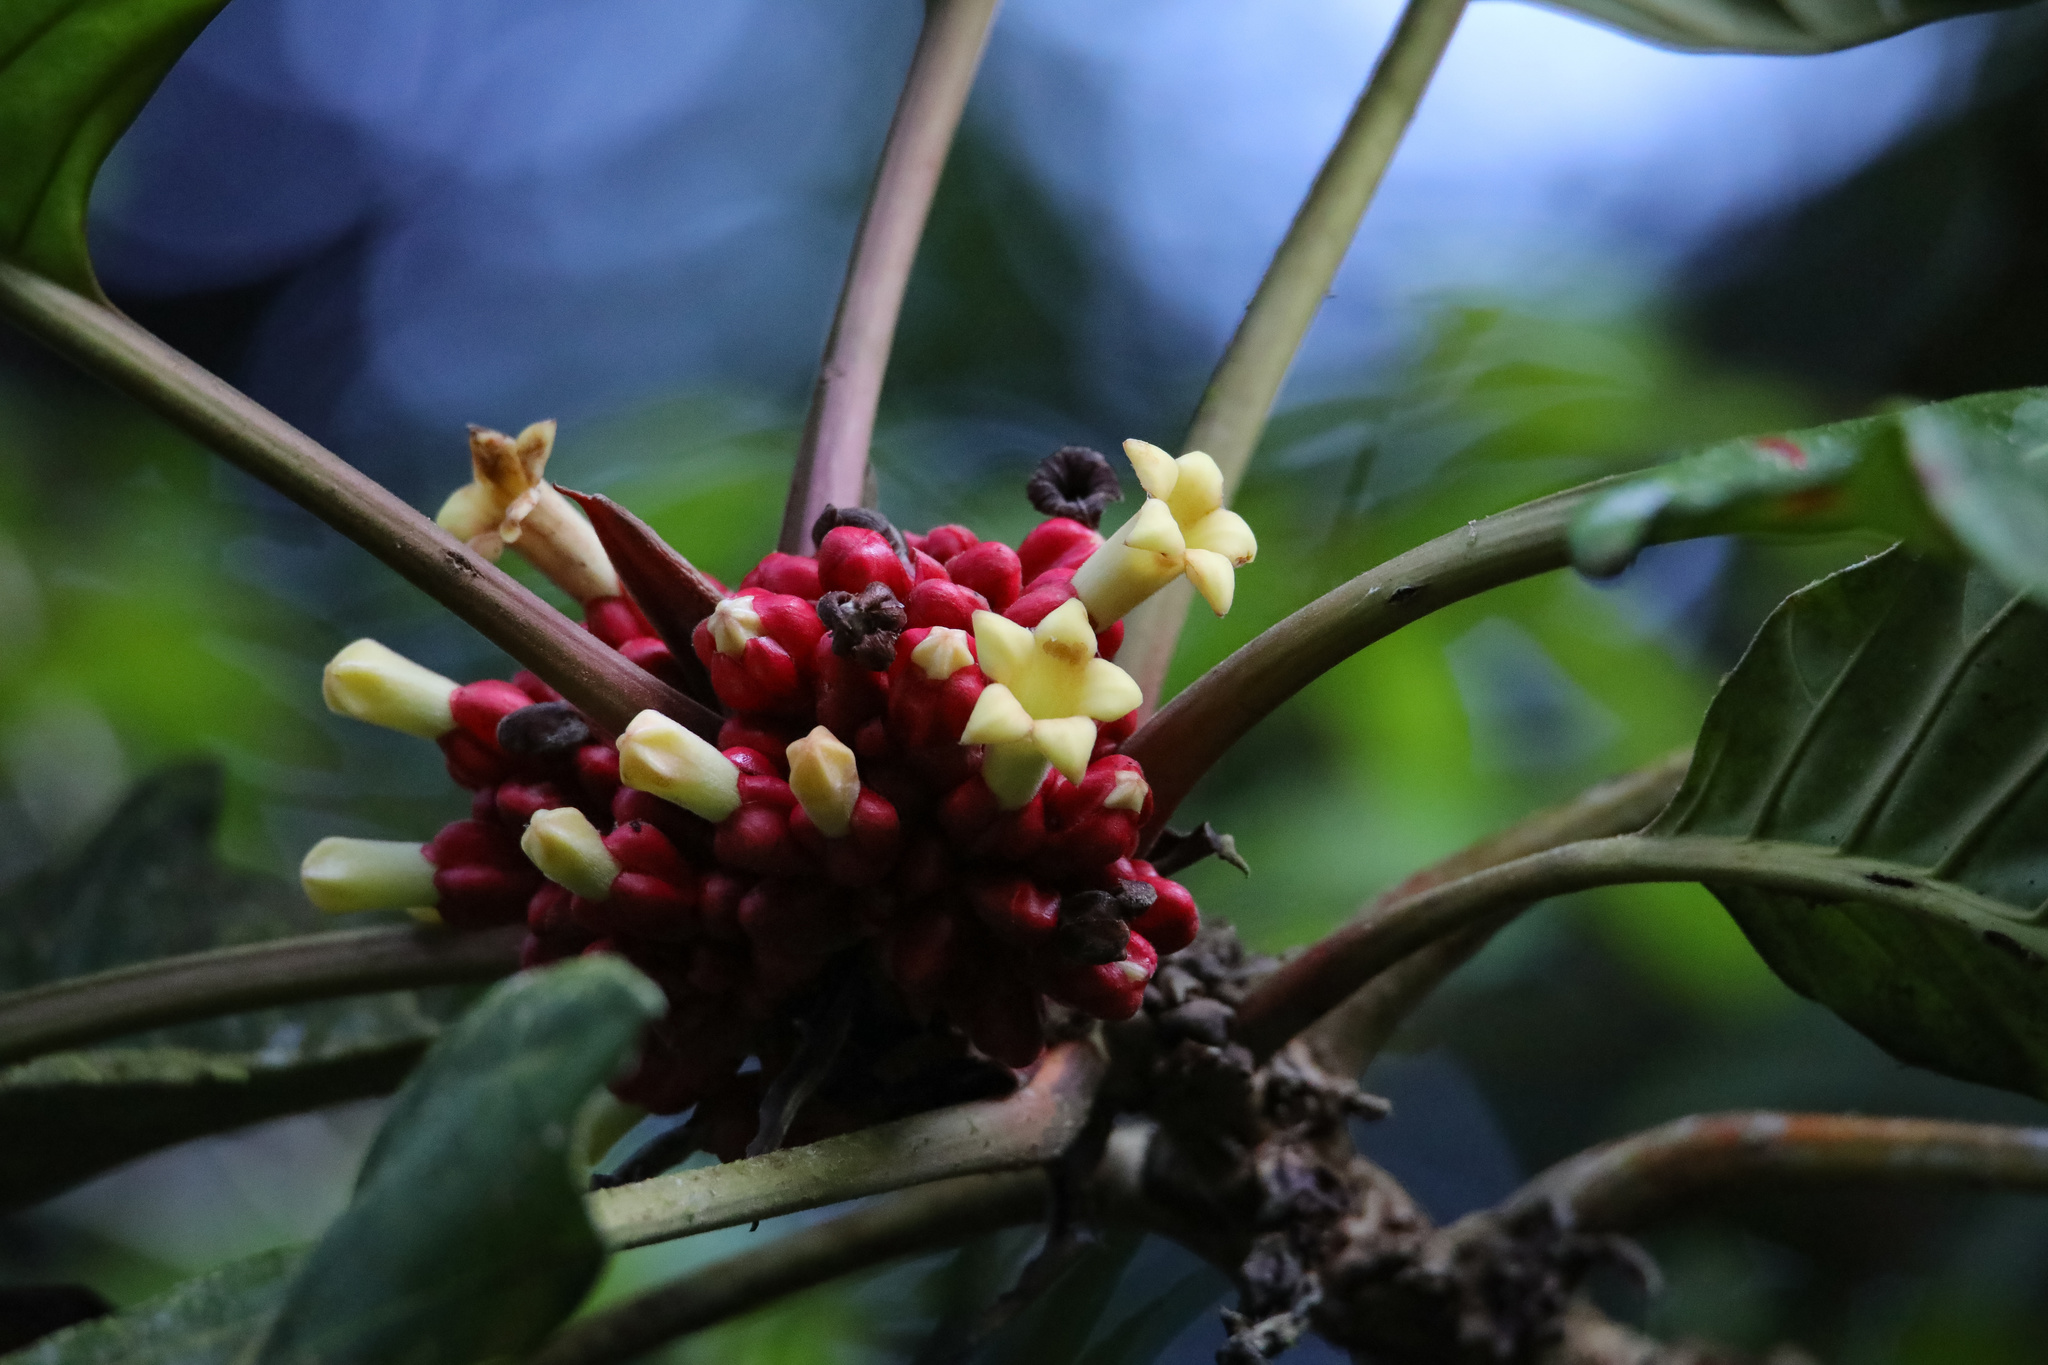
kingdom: Plantae
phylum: Tracheophyta
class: Magnoliopsida
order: Gentianales
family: Rubiaceae
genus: Pentagonia
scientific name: Pentagonia macrophylla
